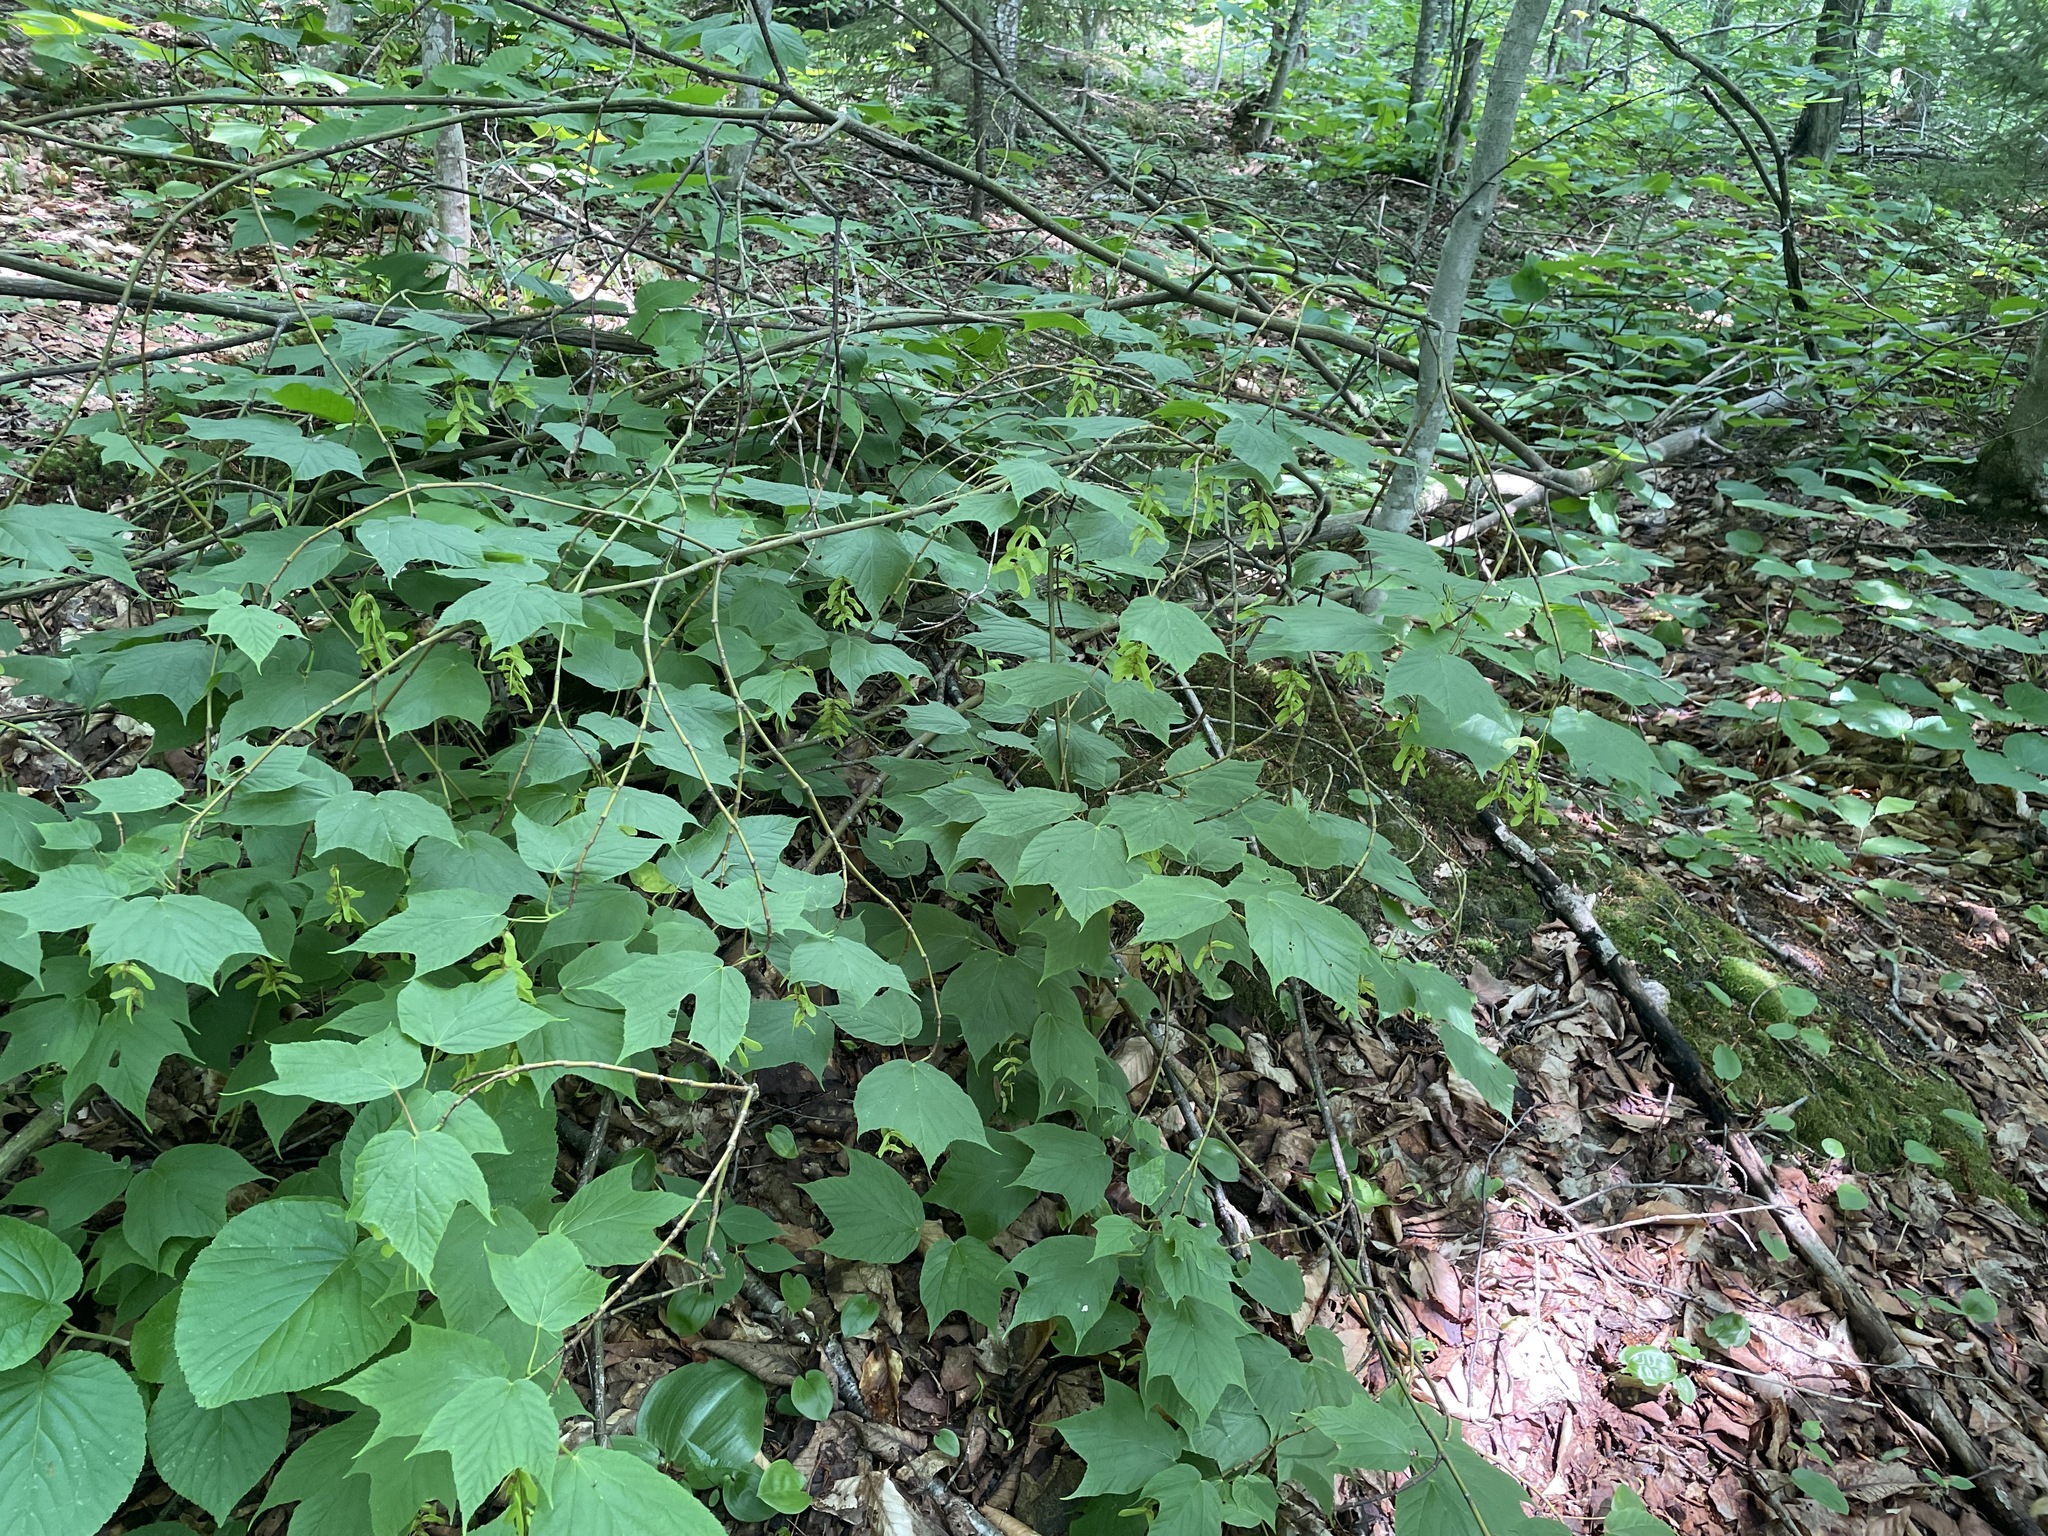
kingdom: Plantae
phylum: Tracheophyta
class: Magnoliopsida
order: Sapindales
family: Sapindaceae
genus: Acer
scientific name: Acer pensylvanicum
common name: Moosewood
